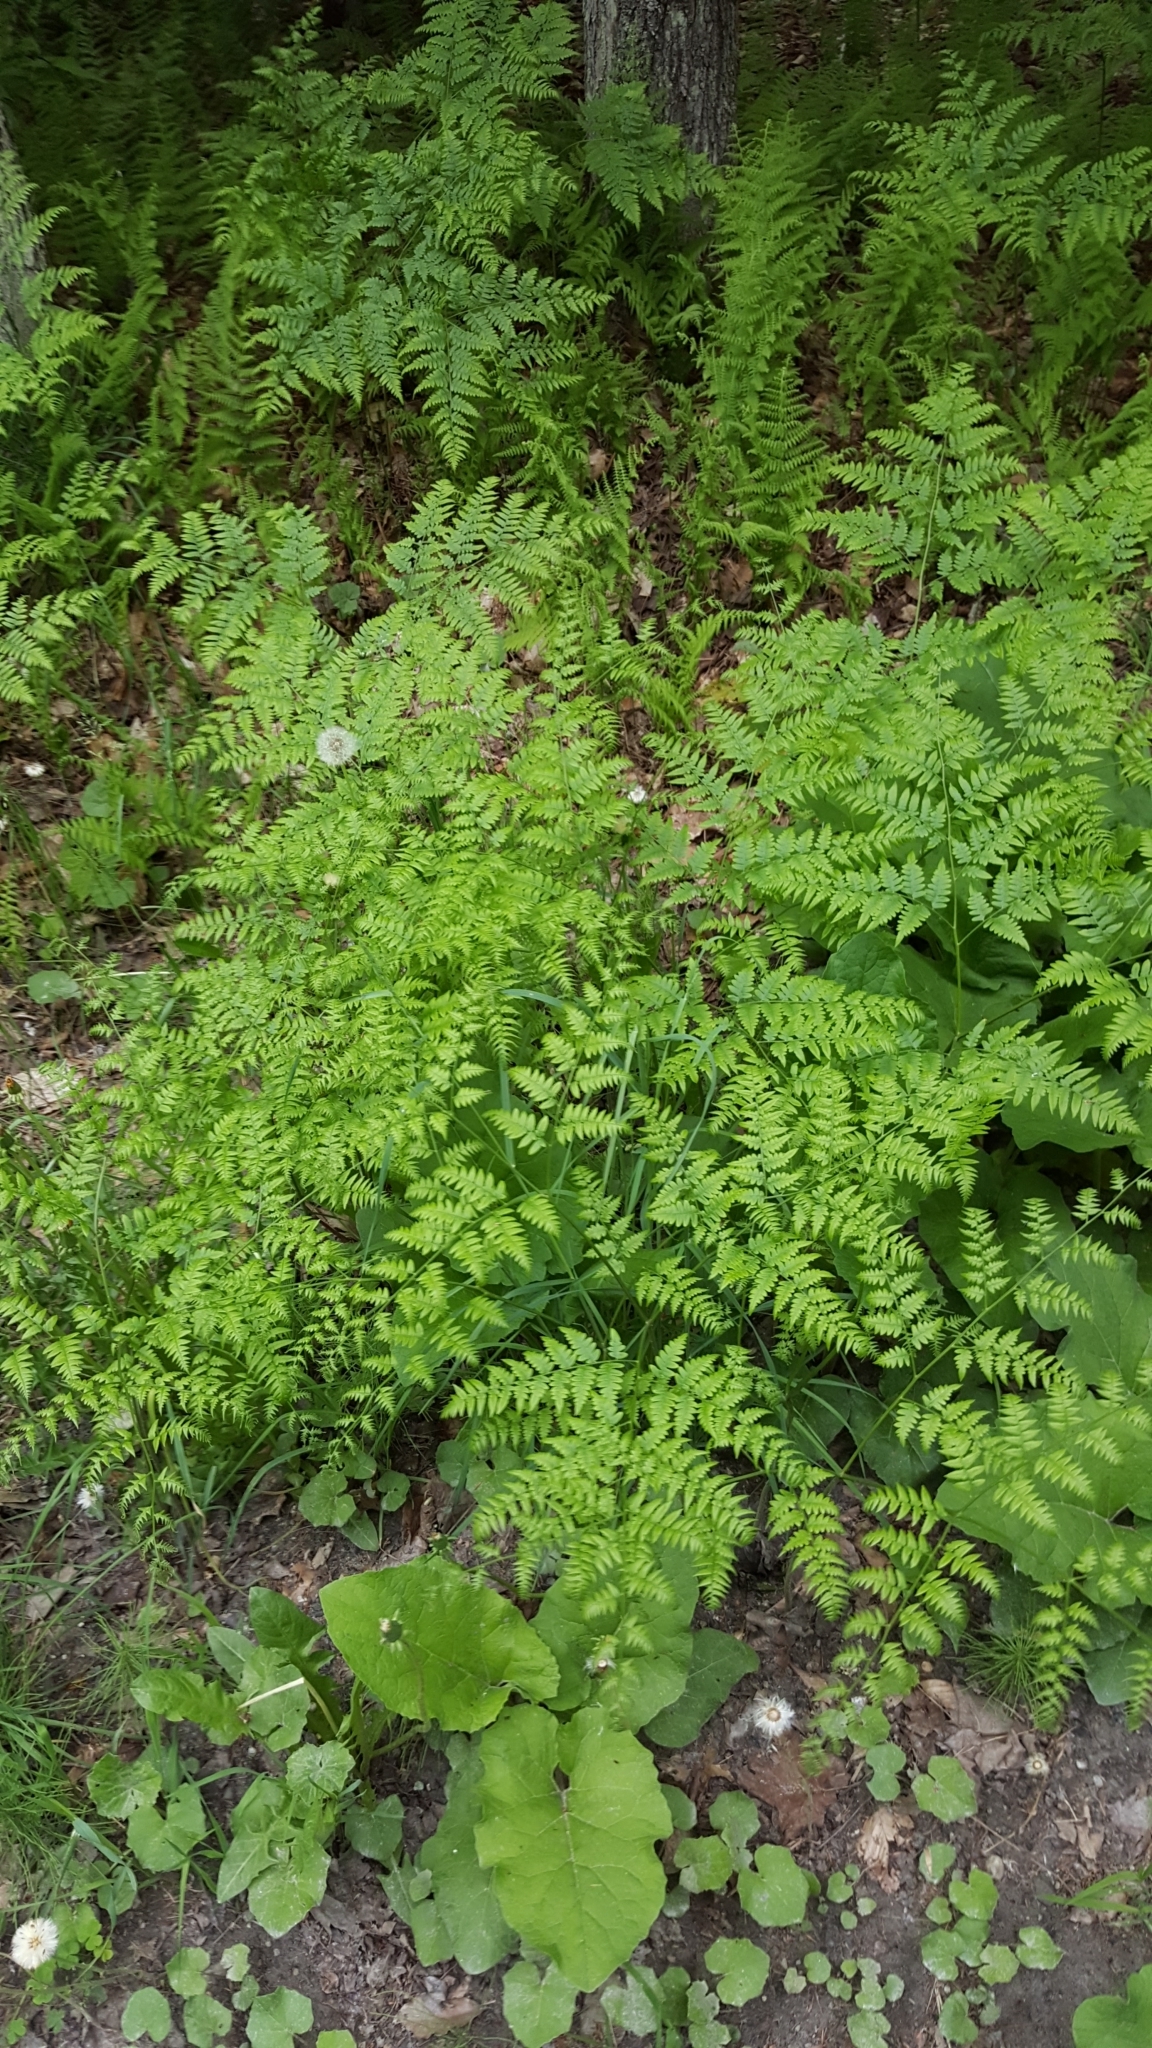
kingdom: Plantae
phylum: Tracheophyta
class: Polypodiopsida
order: Polypodiales
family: Dennstaedtiaceae
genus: Pteridium
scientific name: Pteridium aquilinum
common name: Bracken
